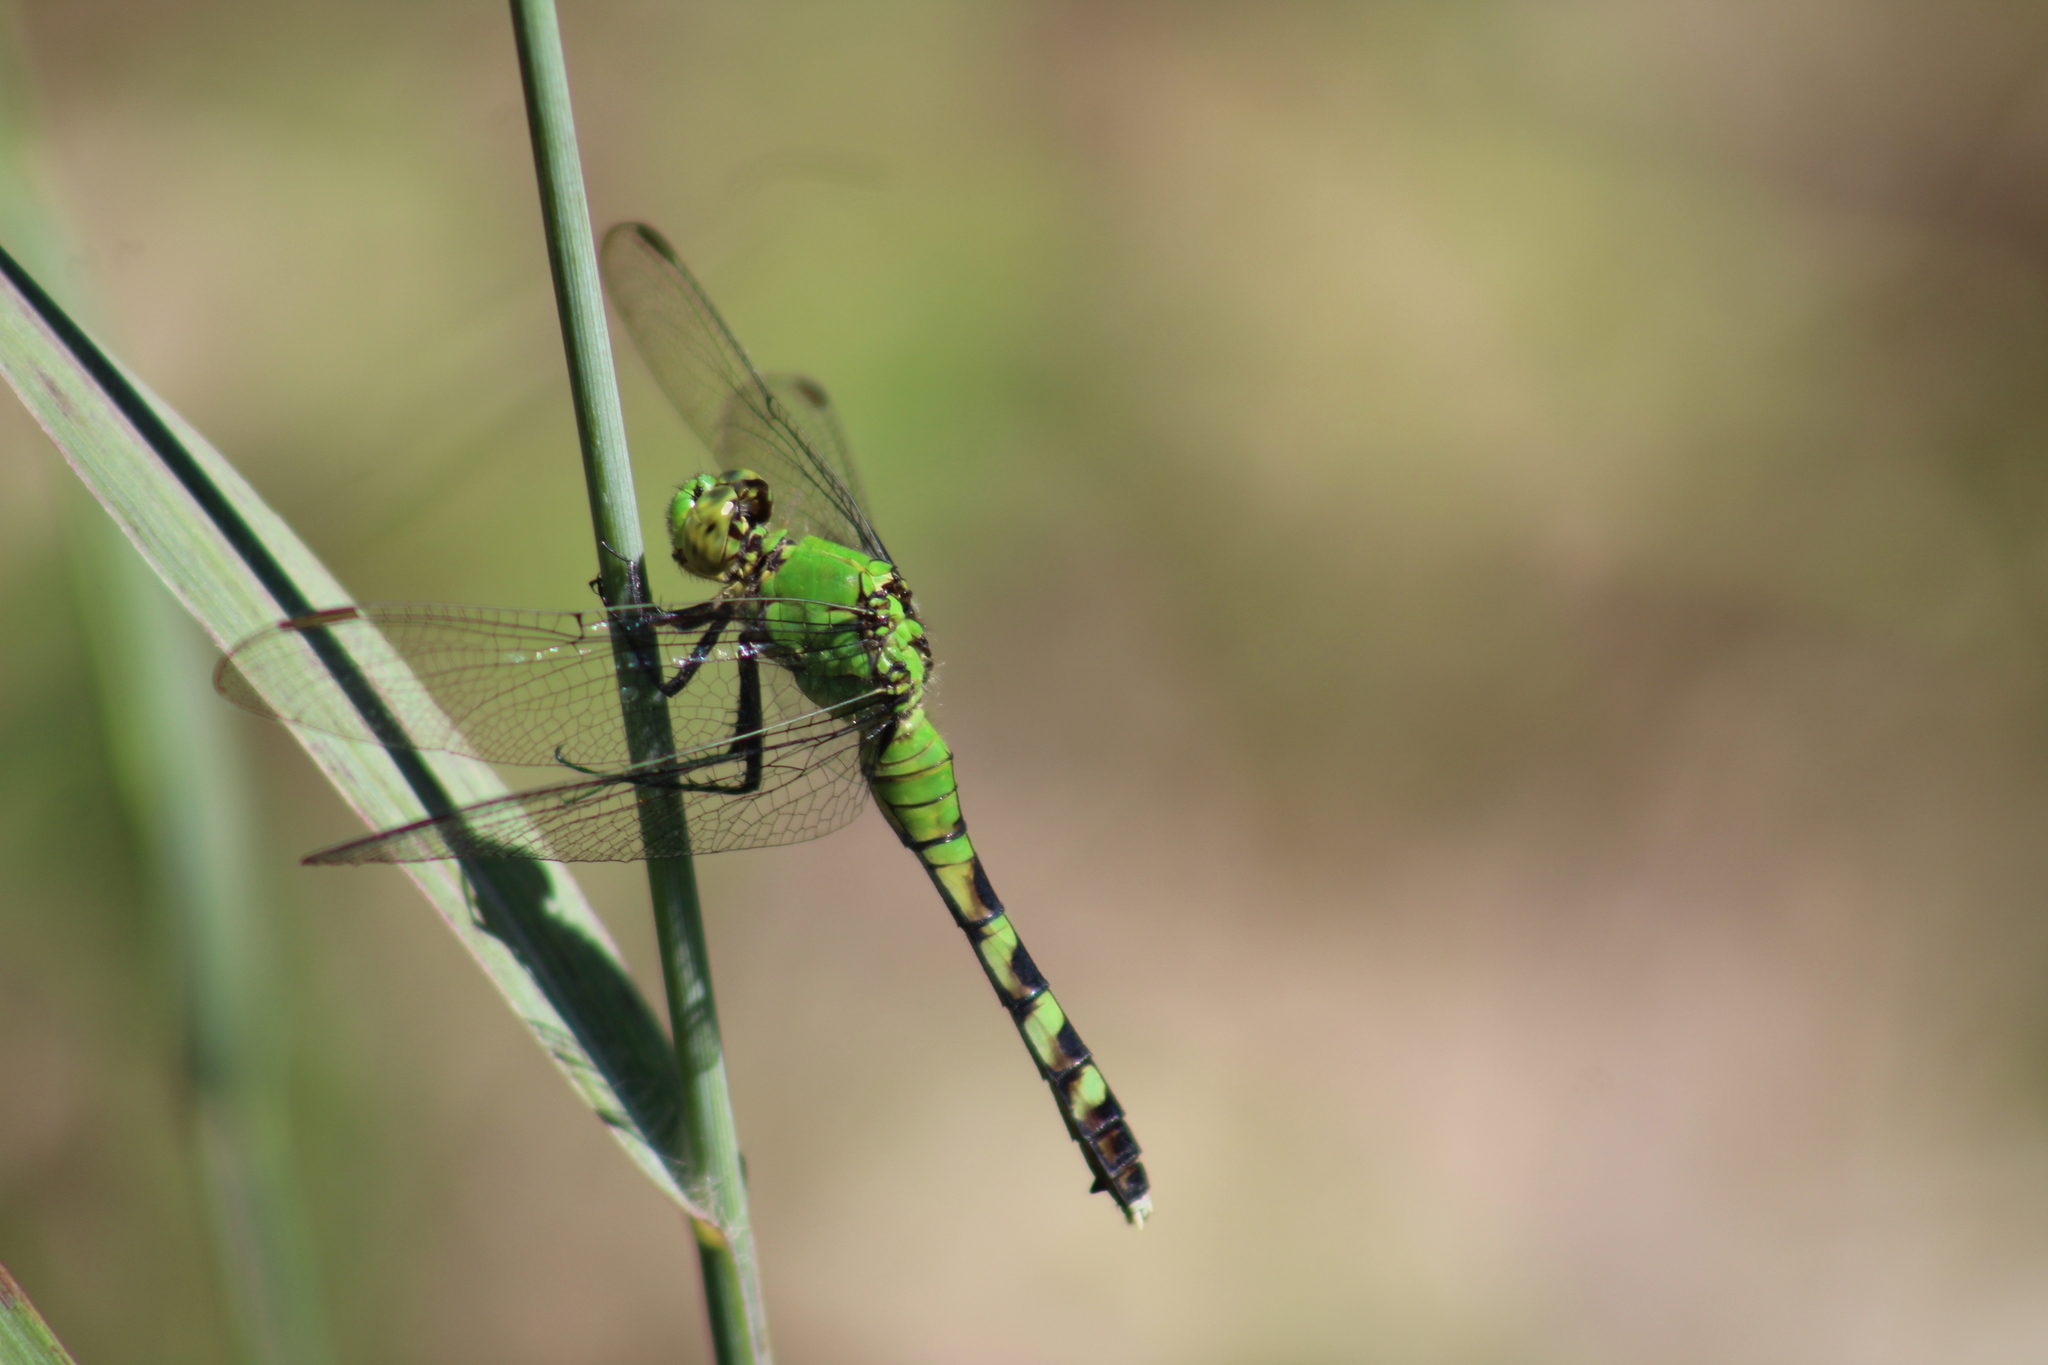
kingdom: Animalia
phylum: Arthropoda
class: Insecta
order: Odonata
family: Libellulidae
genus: Erythemis
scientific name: Erythemis simplicicollis
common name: Eastern pondhawk
